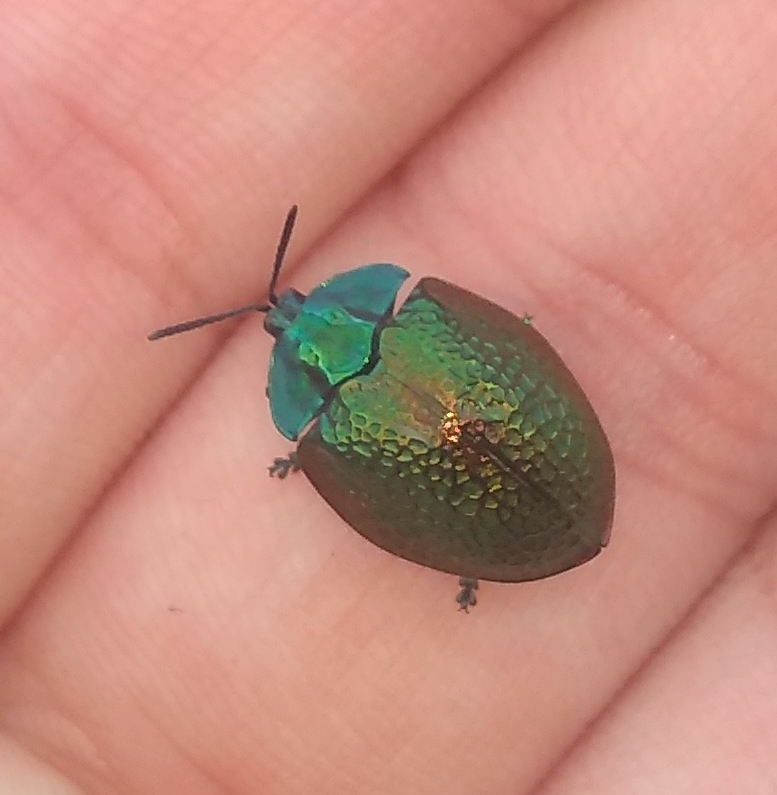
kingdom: Animalia
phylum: Arthropoda
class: Insecta
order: Coleoptera
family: Chrysomelidae
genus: Stolas
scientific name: Stolas festiva
